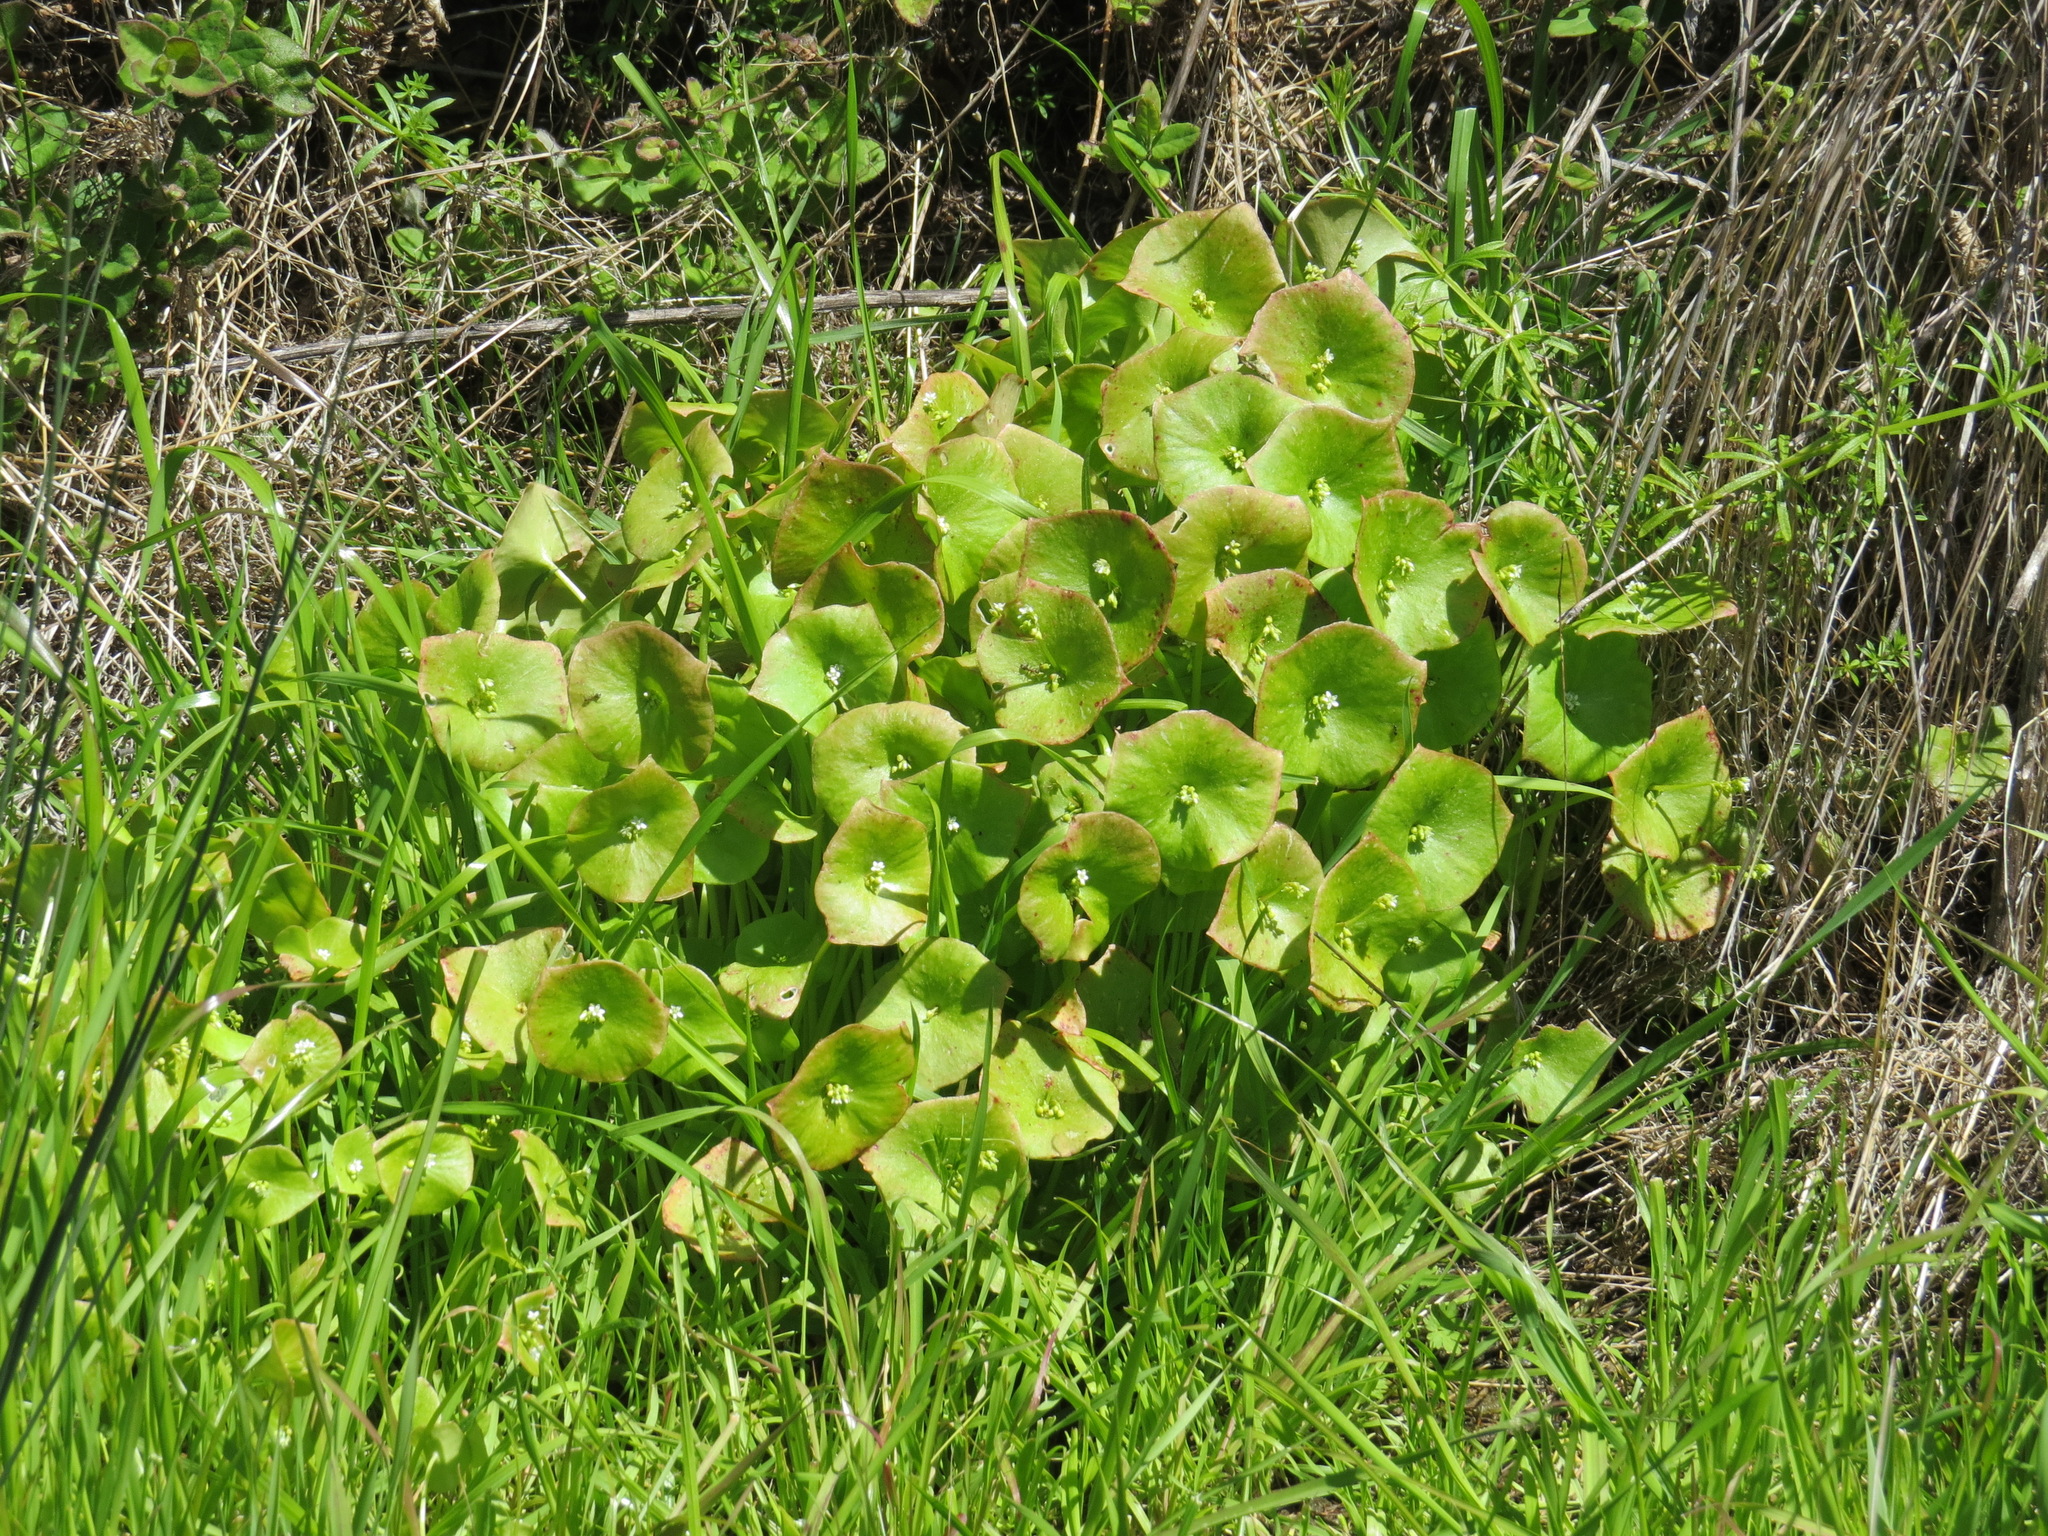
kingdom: Plantae
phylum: Tracheophyta
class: Magnoliopsida
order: Caryophyllales
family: Montiaceae
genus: Claytonia
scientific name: Claytonia perfoliata
